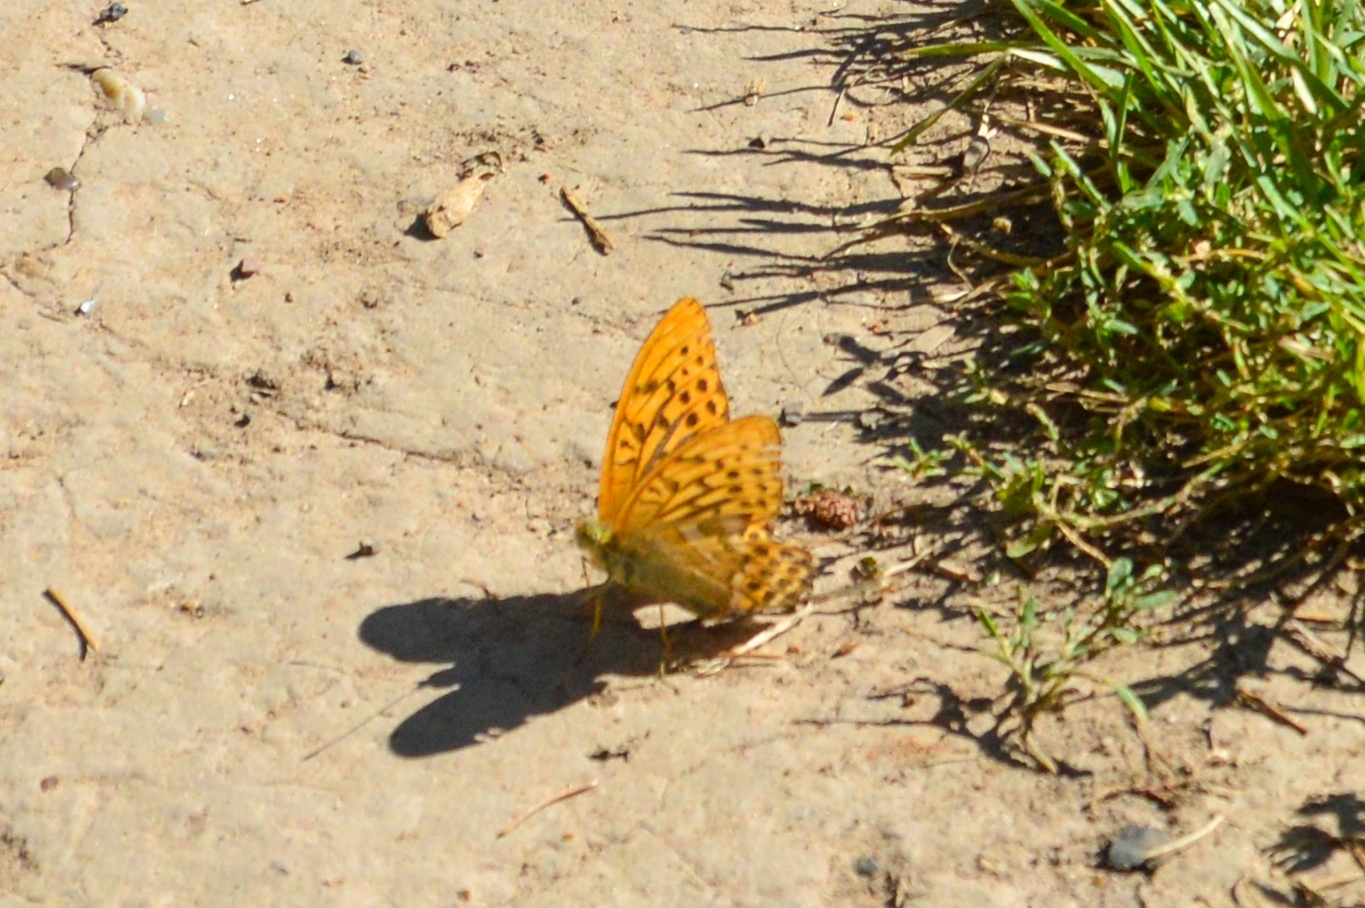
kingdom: Animalia
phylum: Arthropoda
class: Insecta
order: Lepidoptera
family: Nymphalidae
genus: Argynnis
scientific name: Argynnis paphia
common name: Silver-washed fritillary
